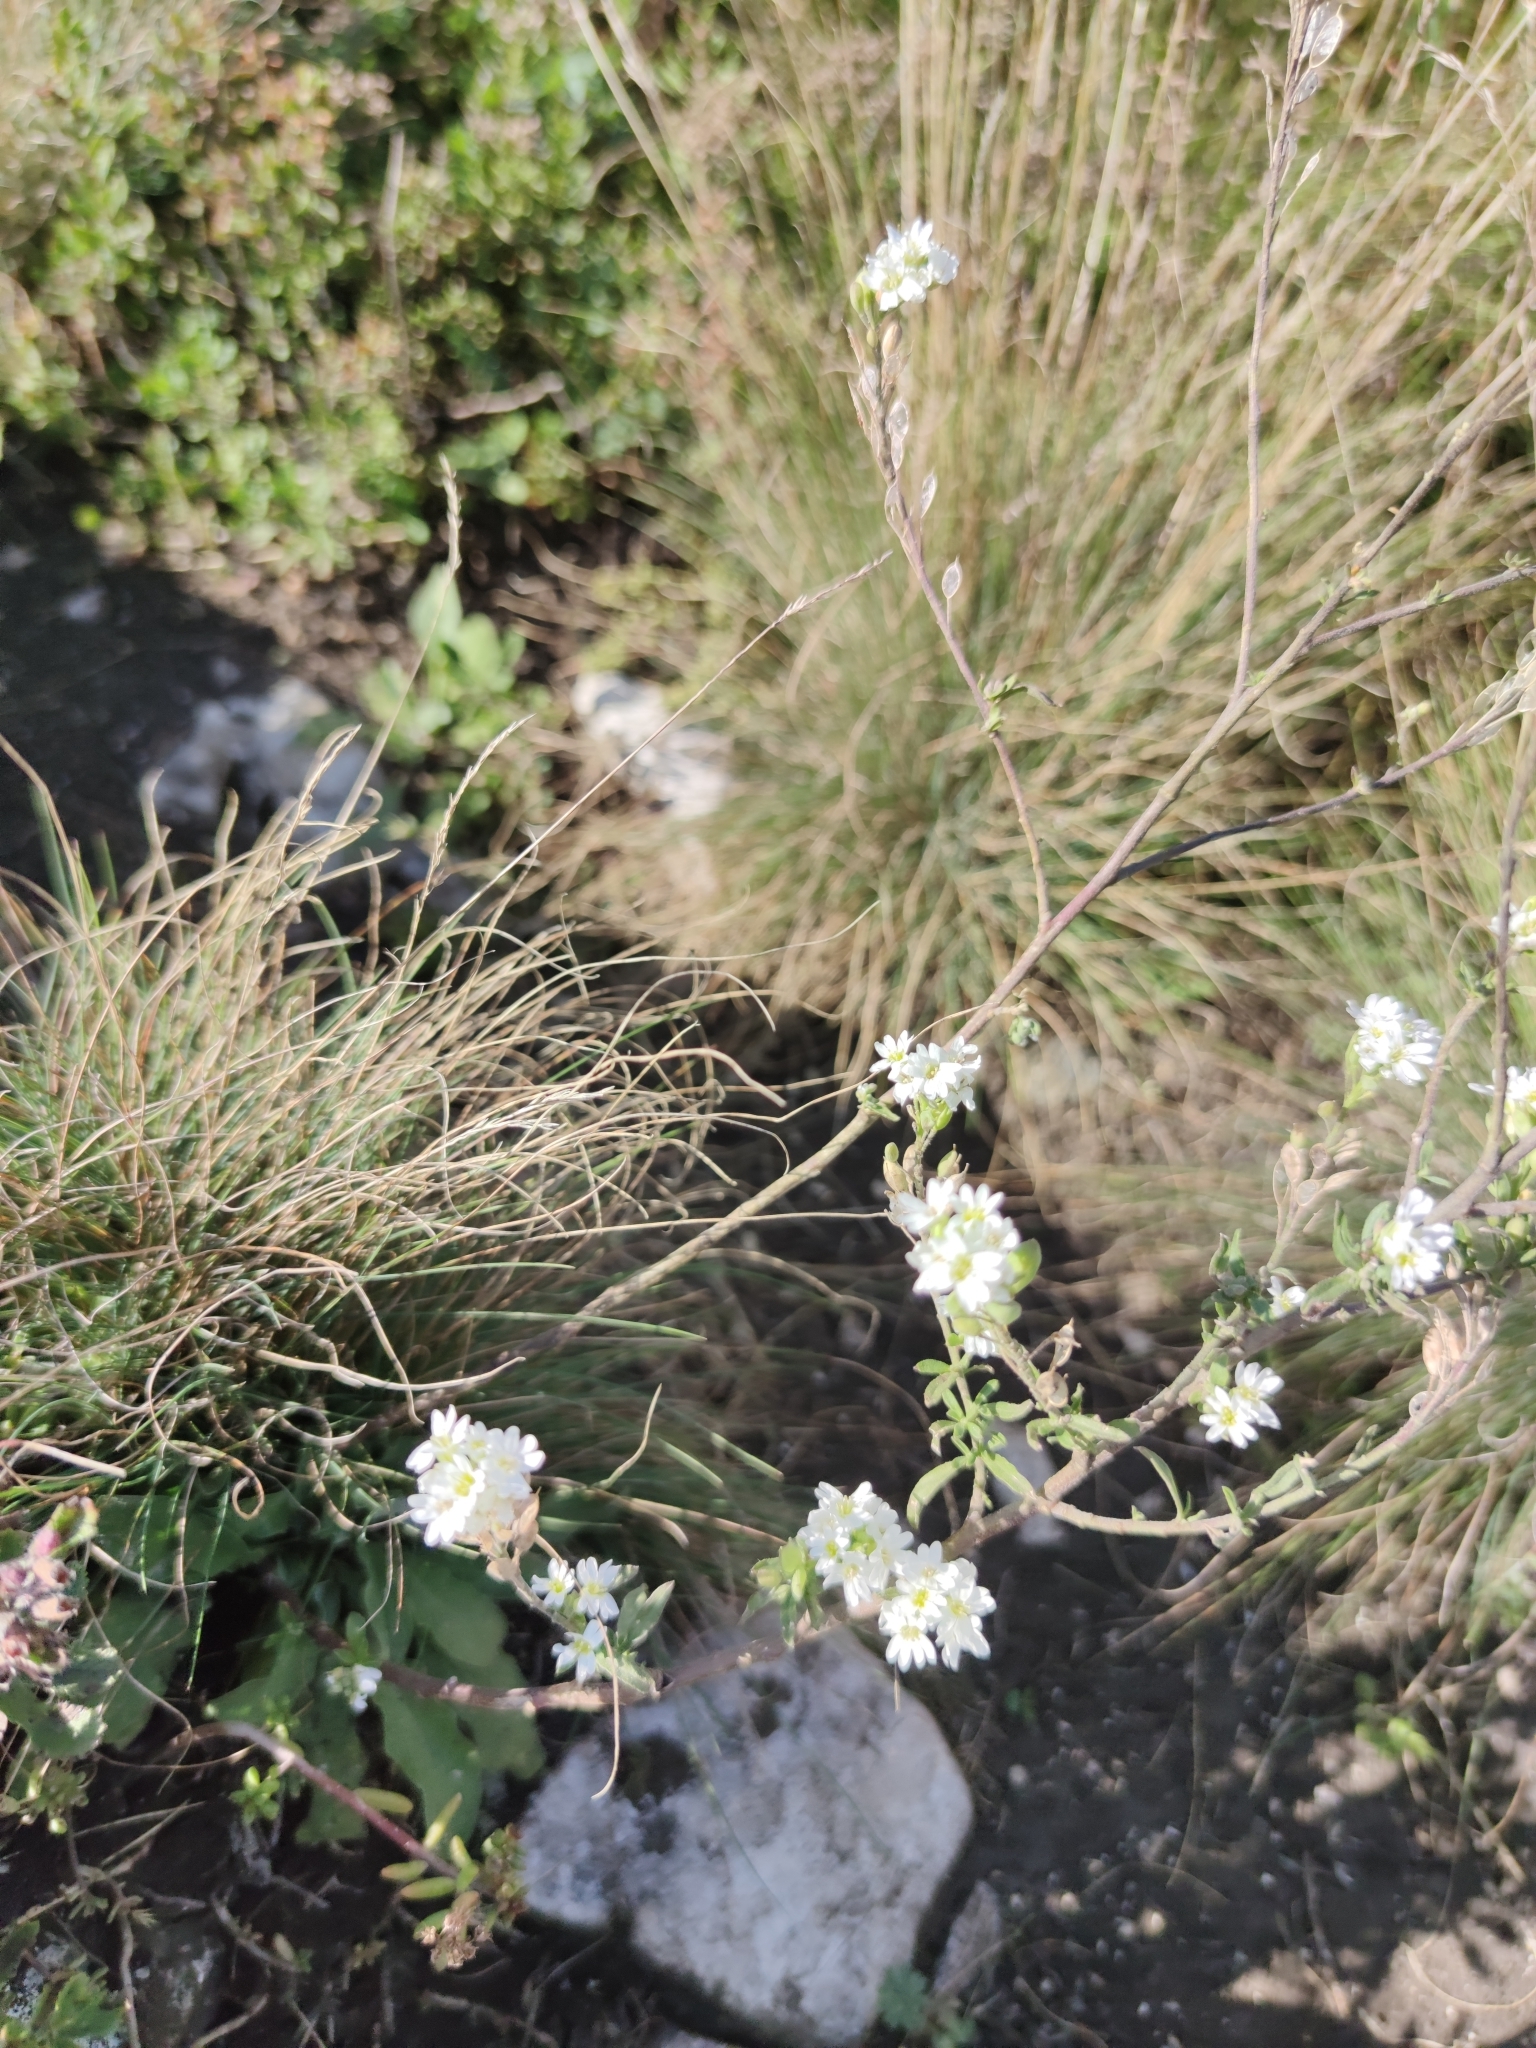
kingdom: Plantae
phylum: Tracheophyta
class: Magnoliopsida
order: Brassicales
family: Brassicaceae
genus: Berteroa
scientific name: Berteroa incana
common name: Hoary alison
